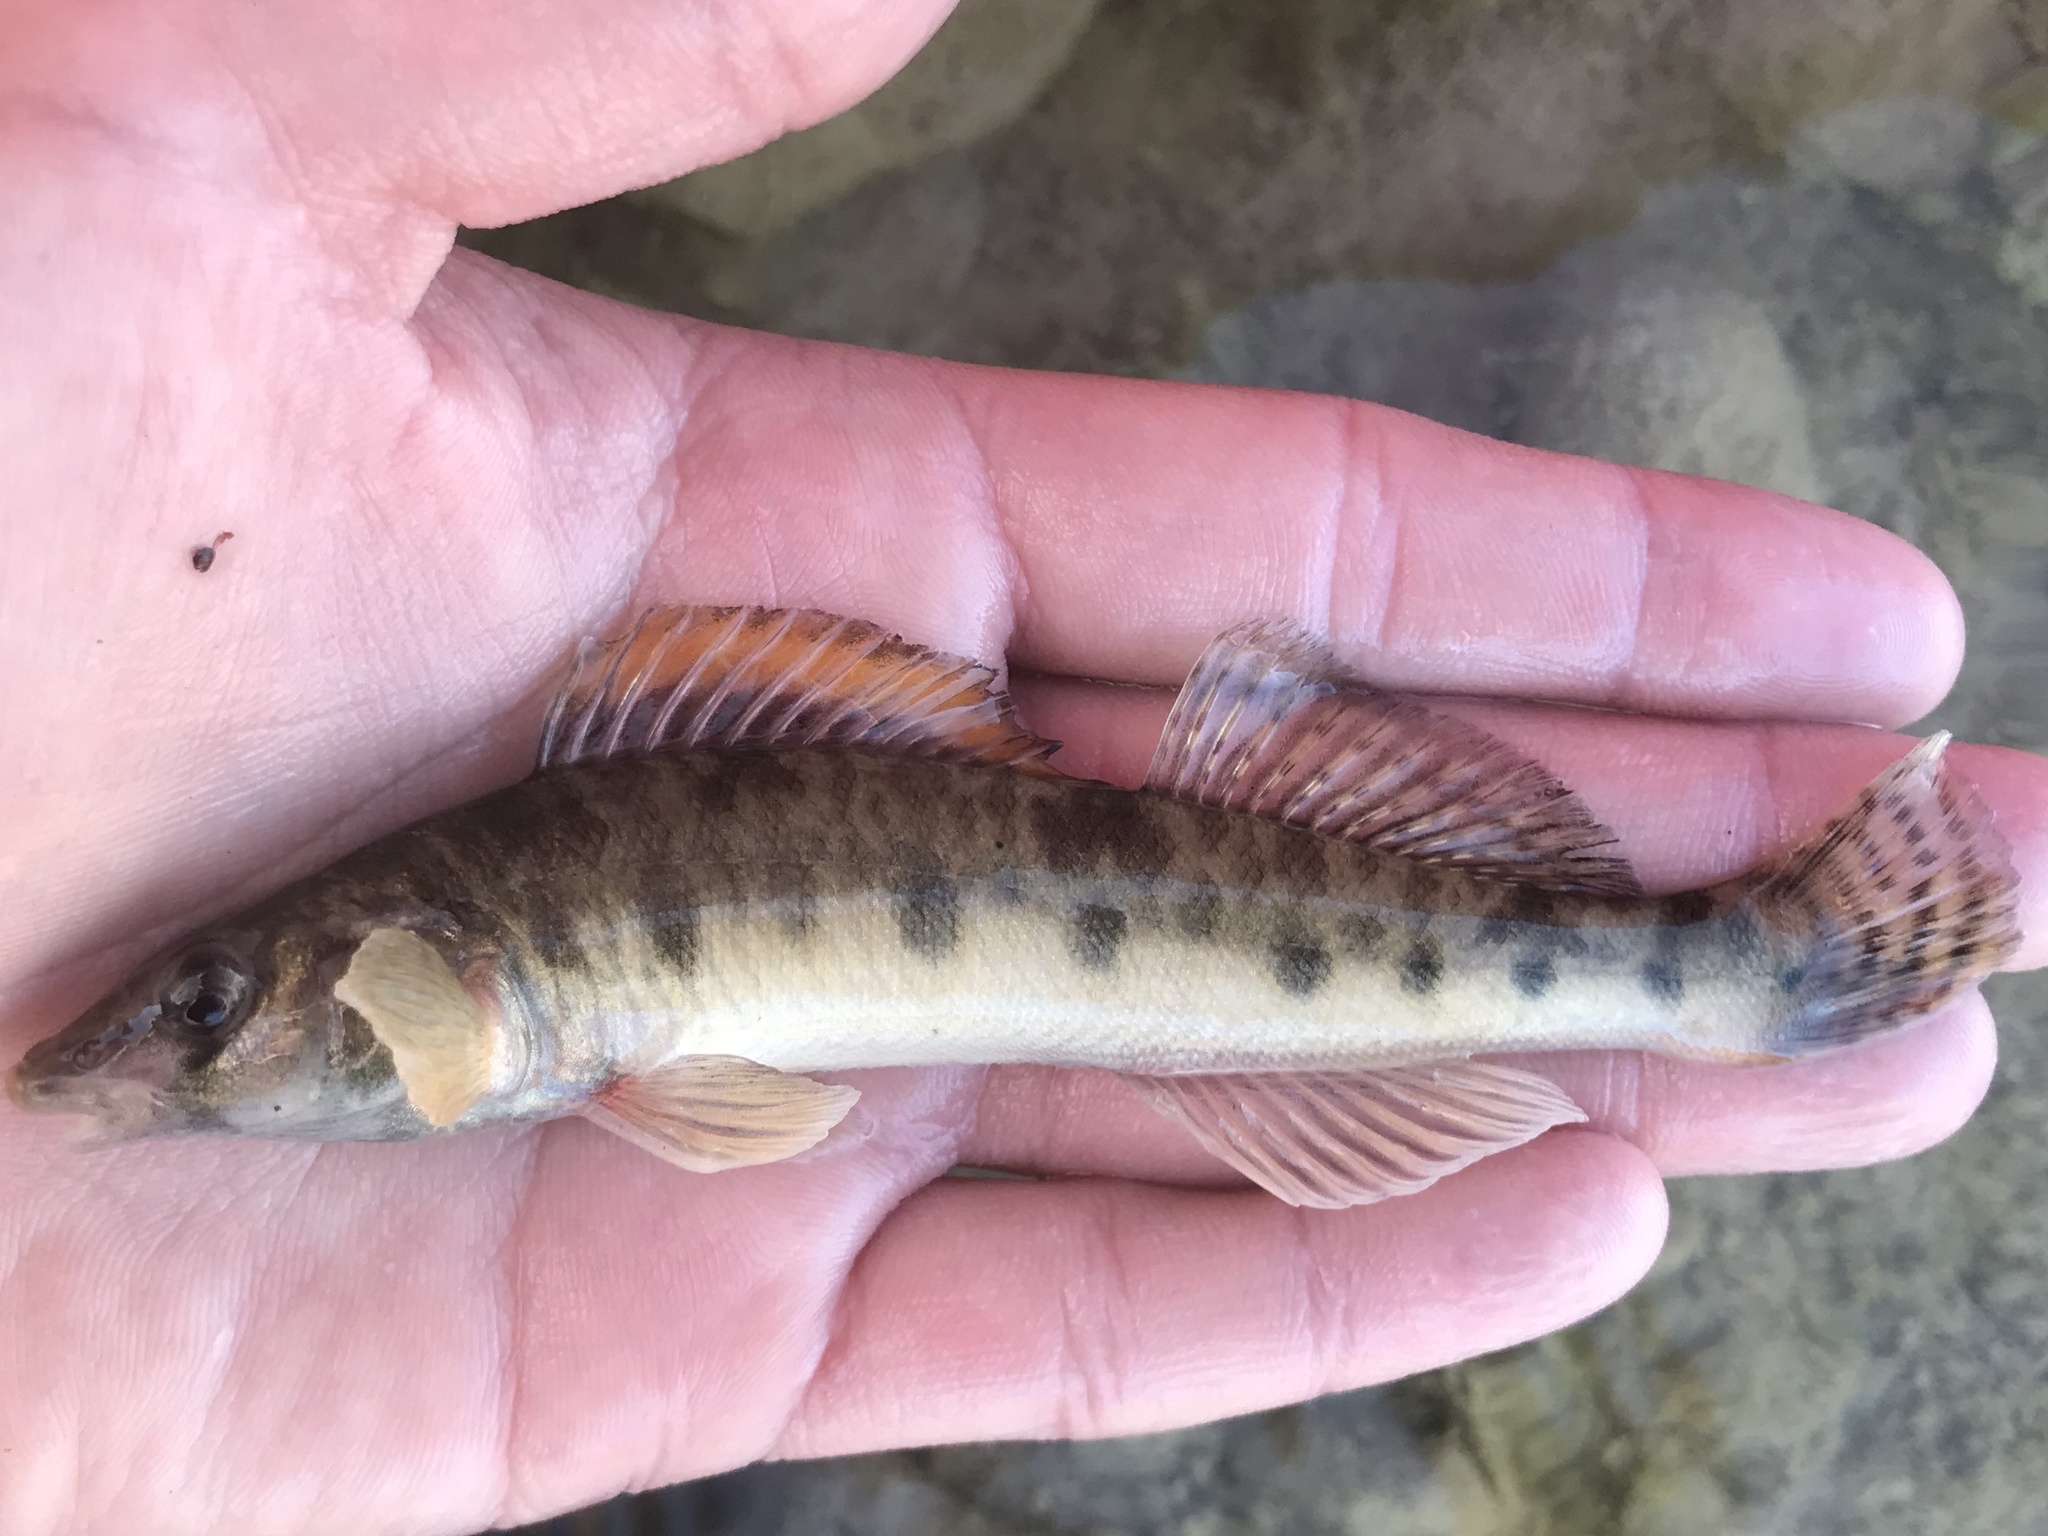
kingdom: Animalia
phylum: Chordata
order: Perciformes
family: Percidae
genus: Percina
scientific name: Percina carbonaria
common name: Texas logperch
